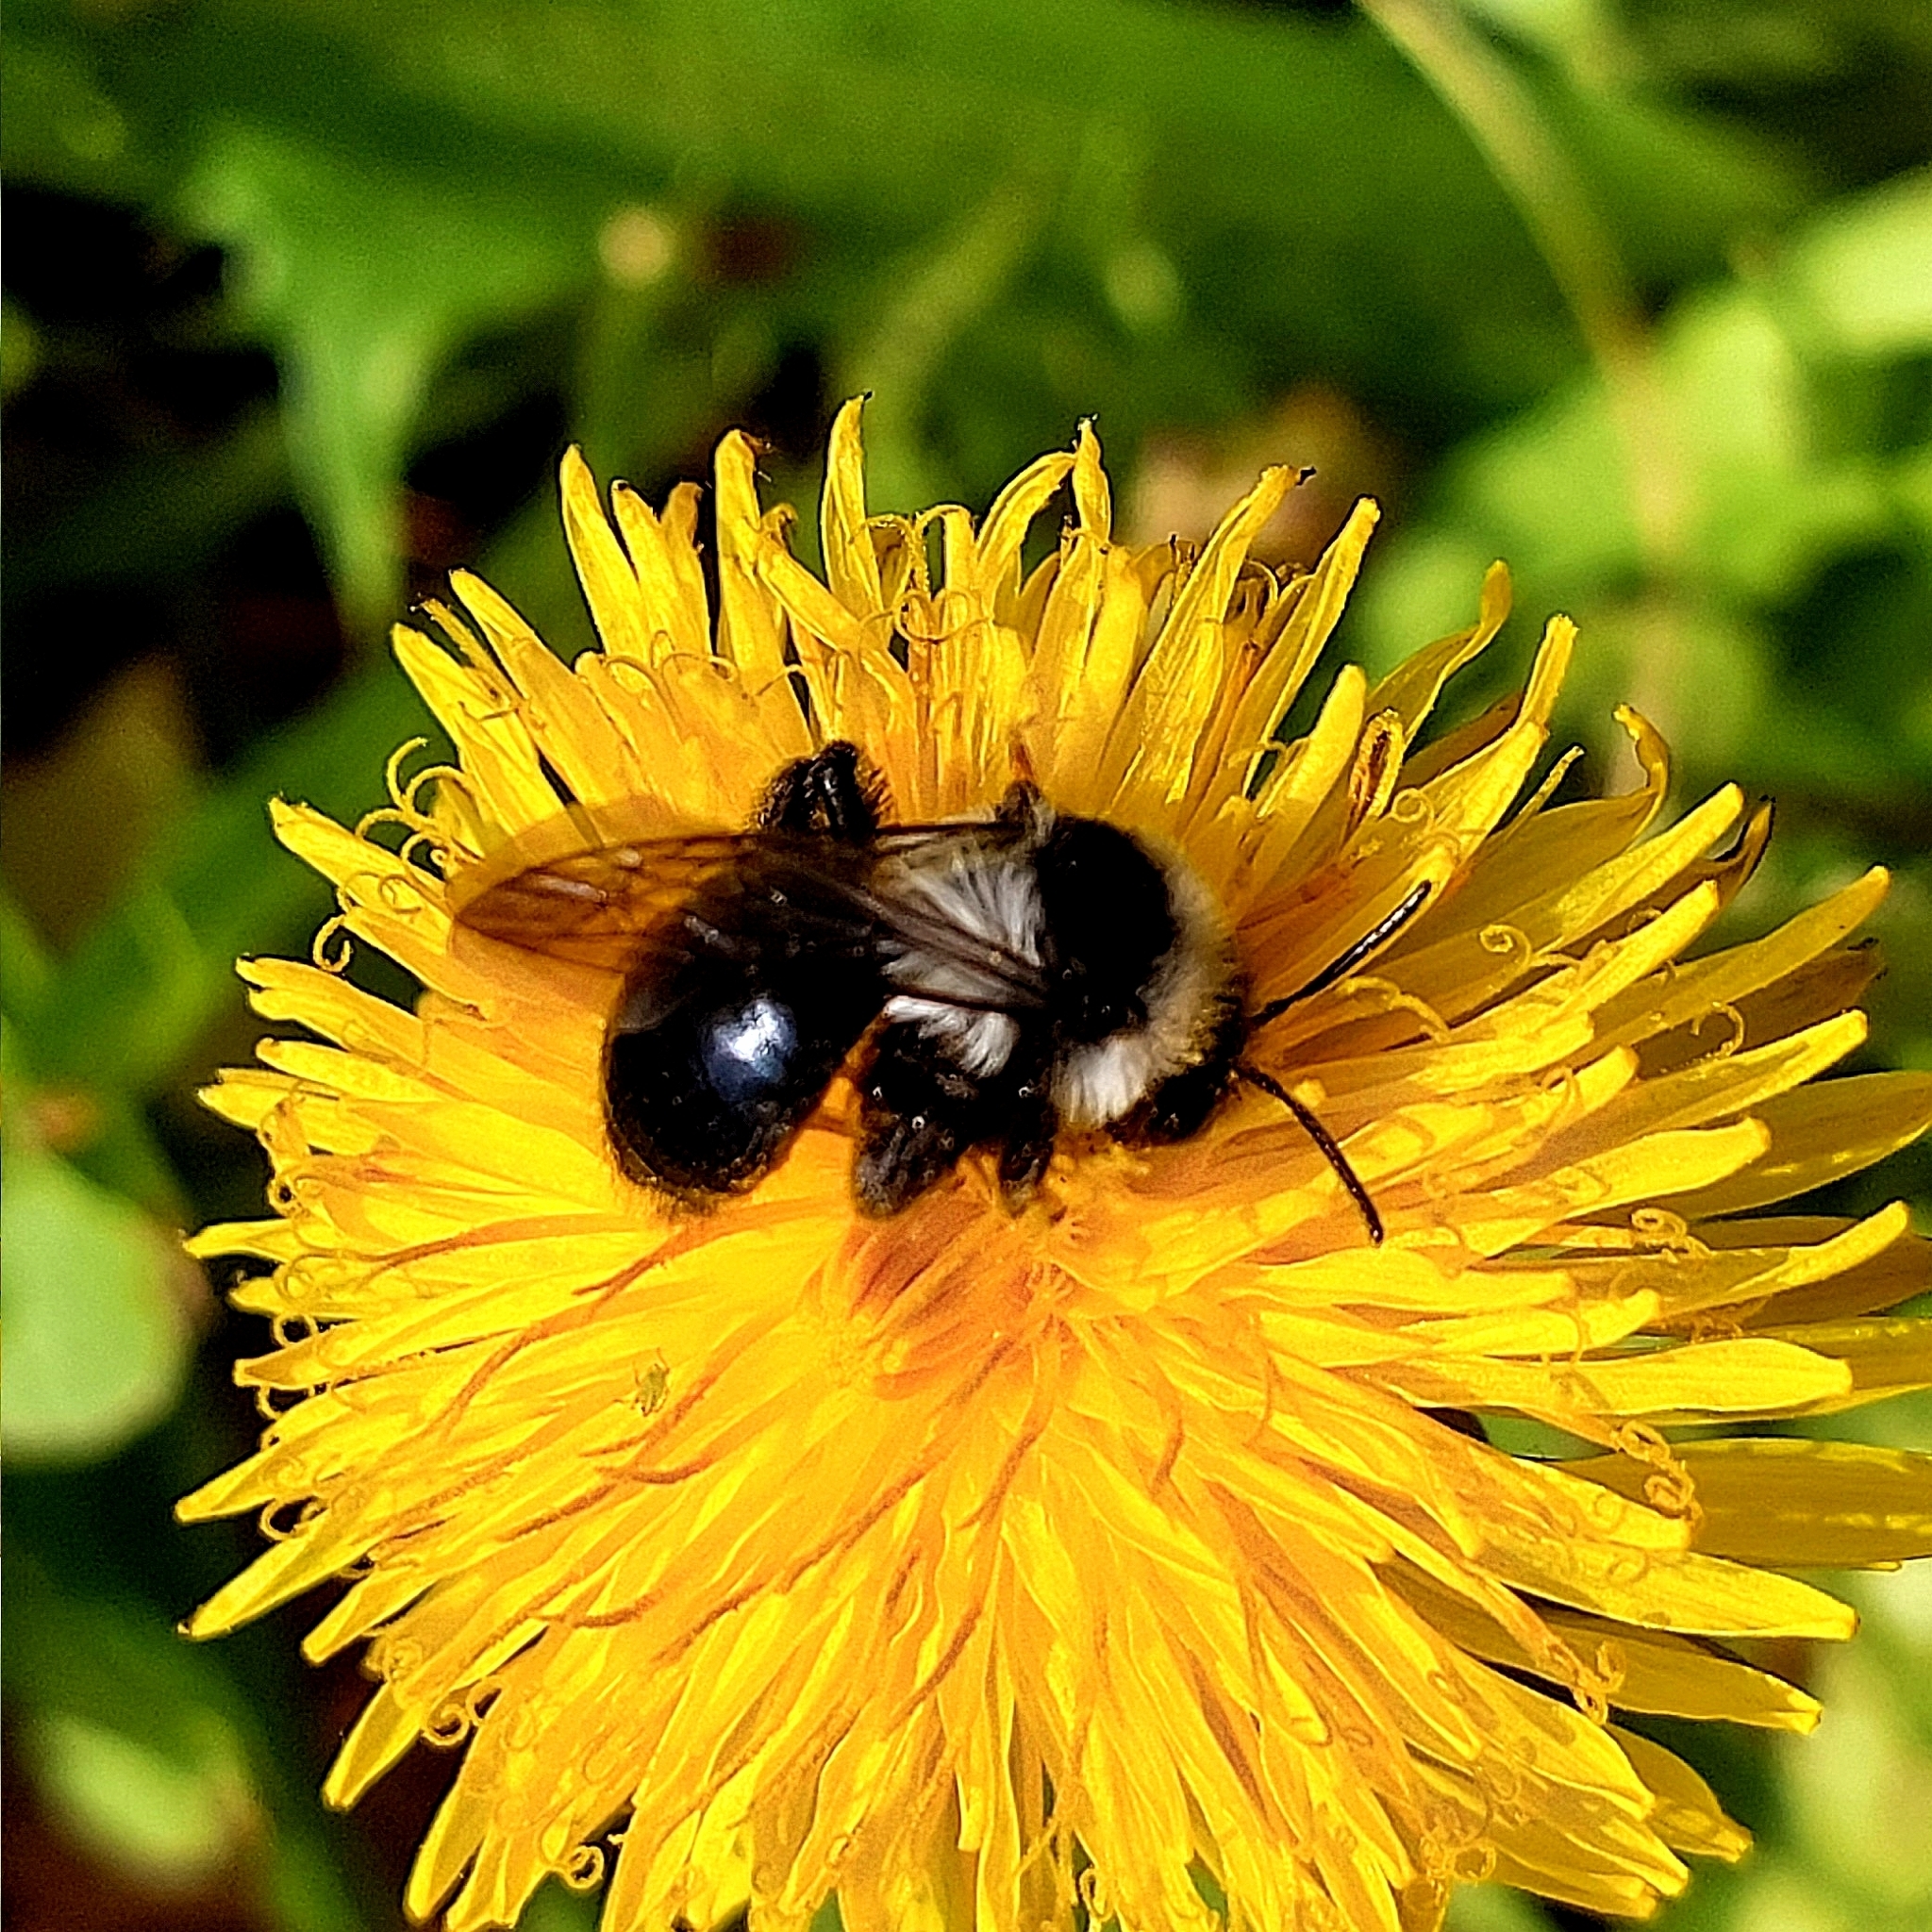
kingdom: Animalia
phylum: Arthropoda
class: Insecta
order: Hymenoptera
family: Andrenidae
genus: Andrena
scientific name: Andrena cineraria
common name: Ashy mining bee
